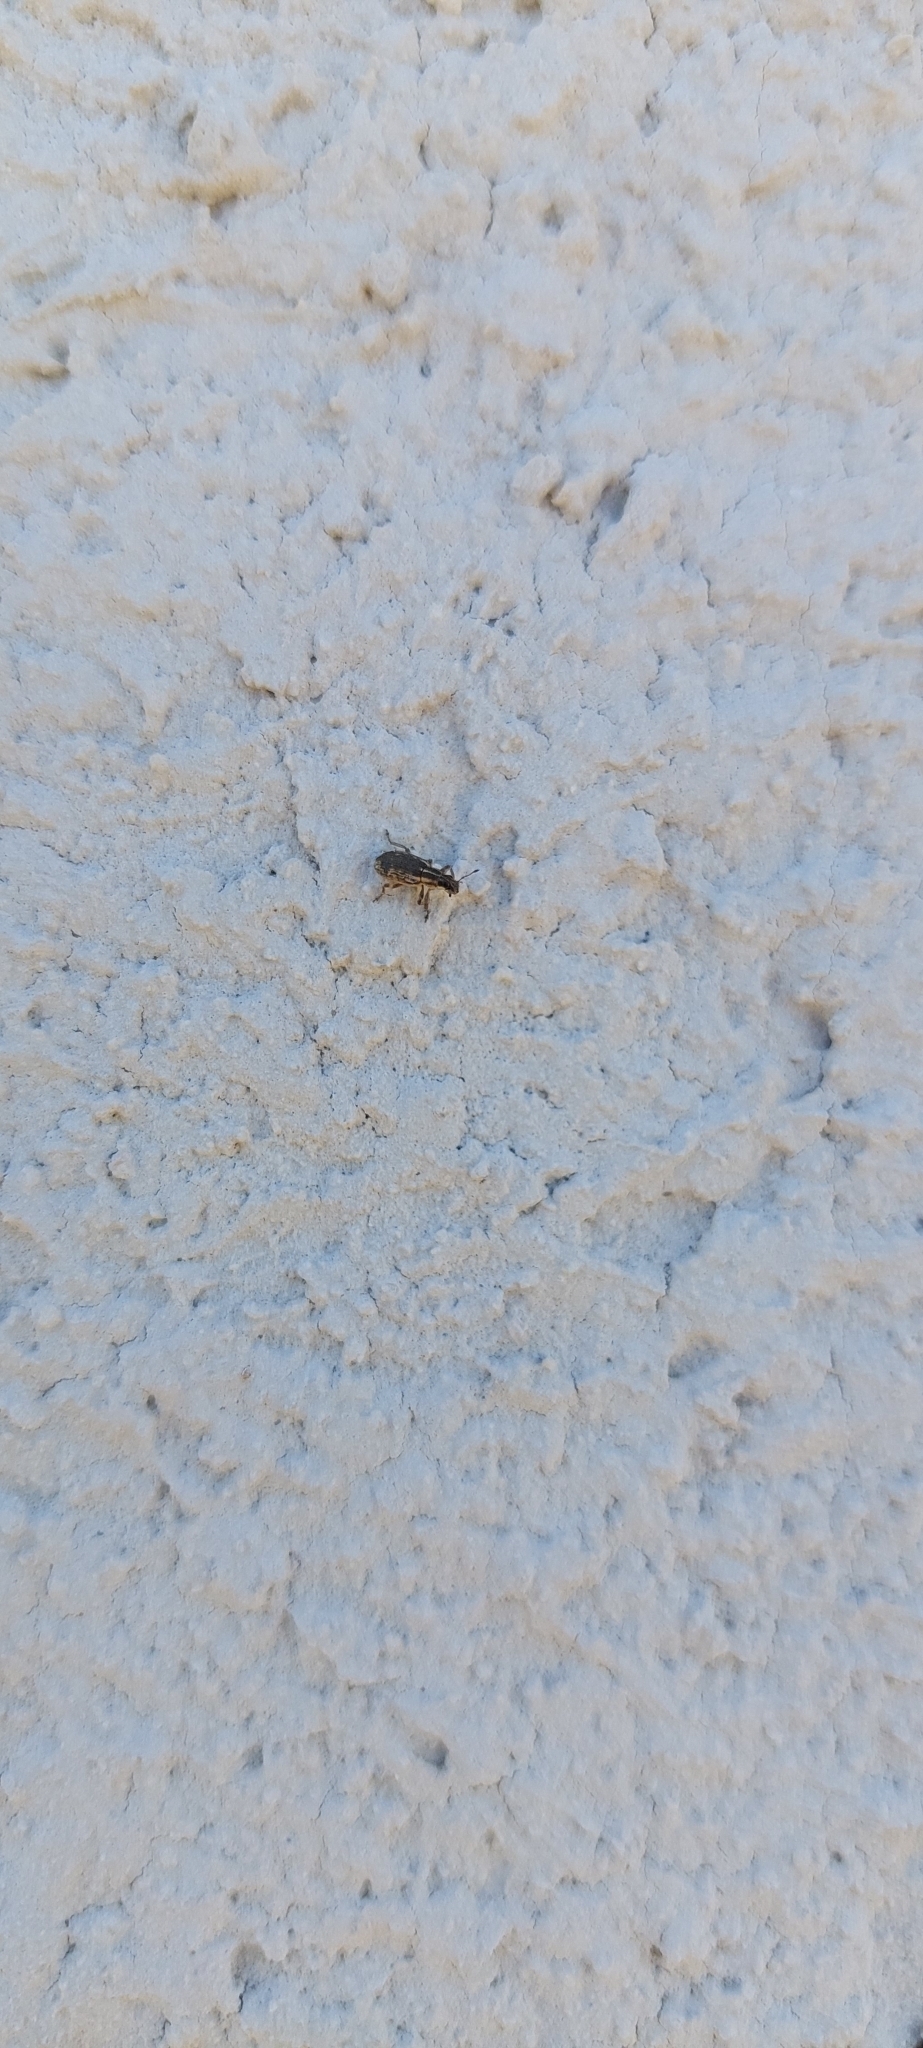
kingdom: Animalia
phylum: Arthropoda
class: Insecta
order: Coleoptera
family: Curculionidae
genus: Sitona
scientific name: Sitona discoideus
